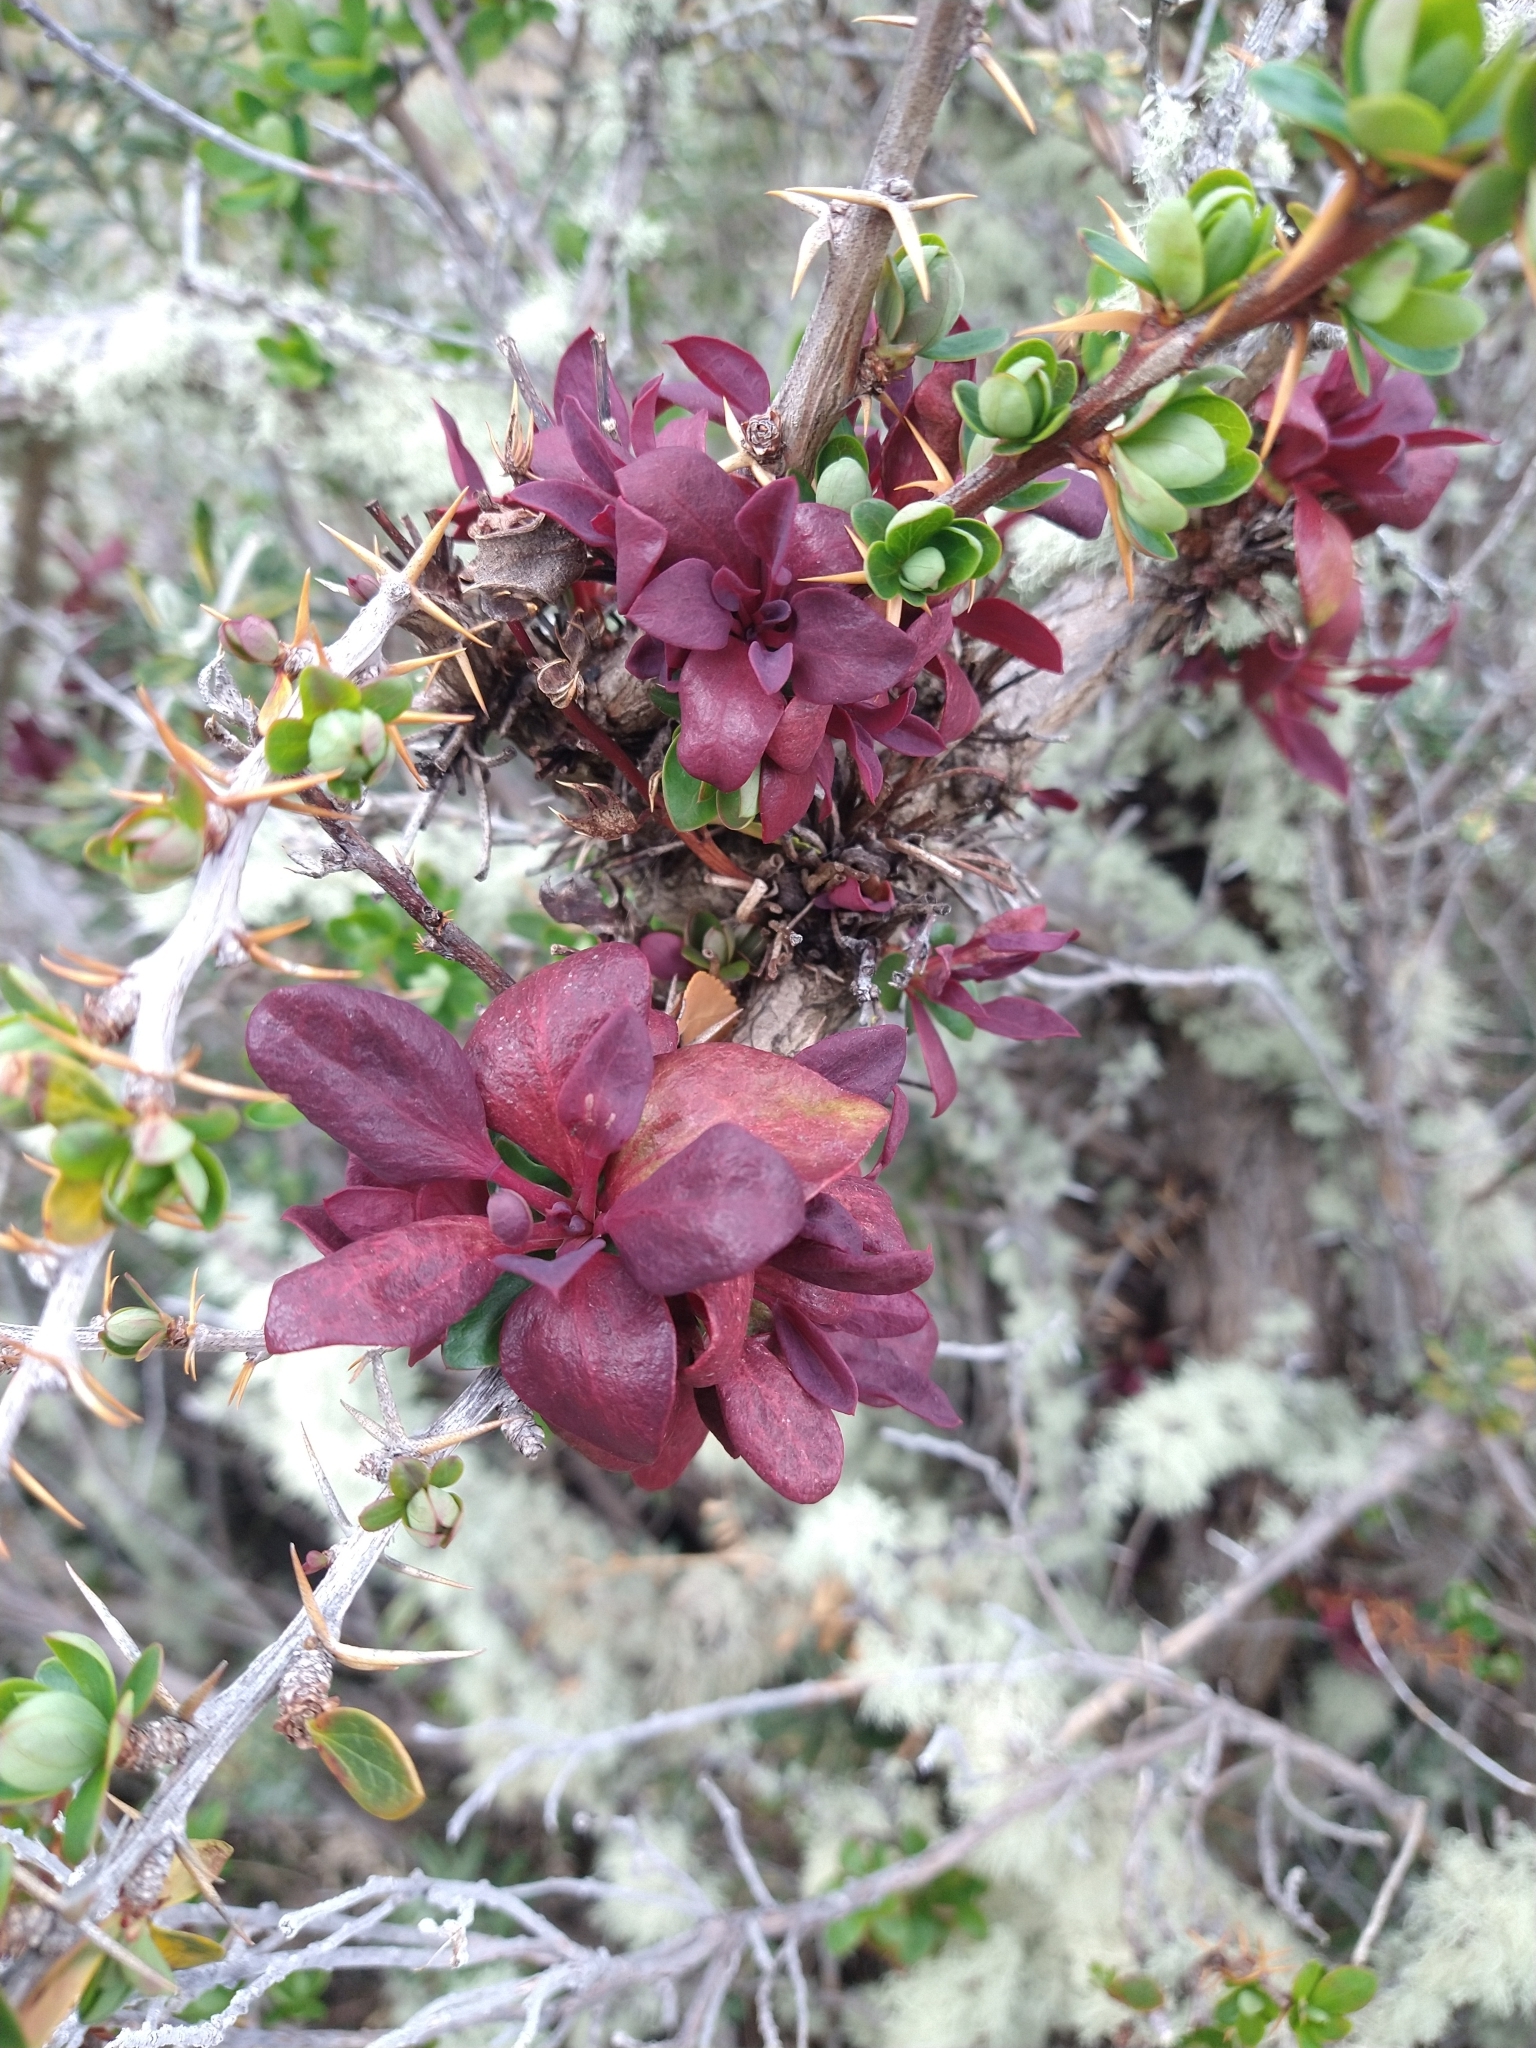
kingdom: Fungi
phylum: Basidiomycota
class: Pucciniomycetes
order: Pucciniales
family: Pucciniaceae
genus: Puccinia
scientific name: Puccinia magellanica
